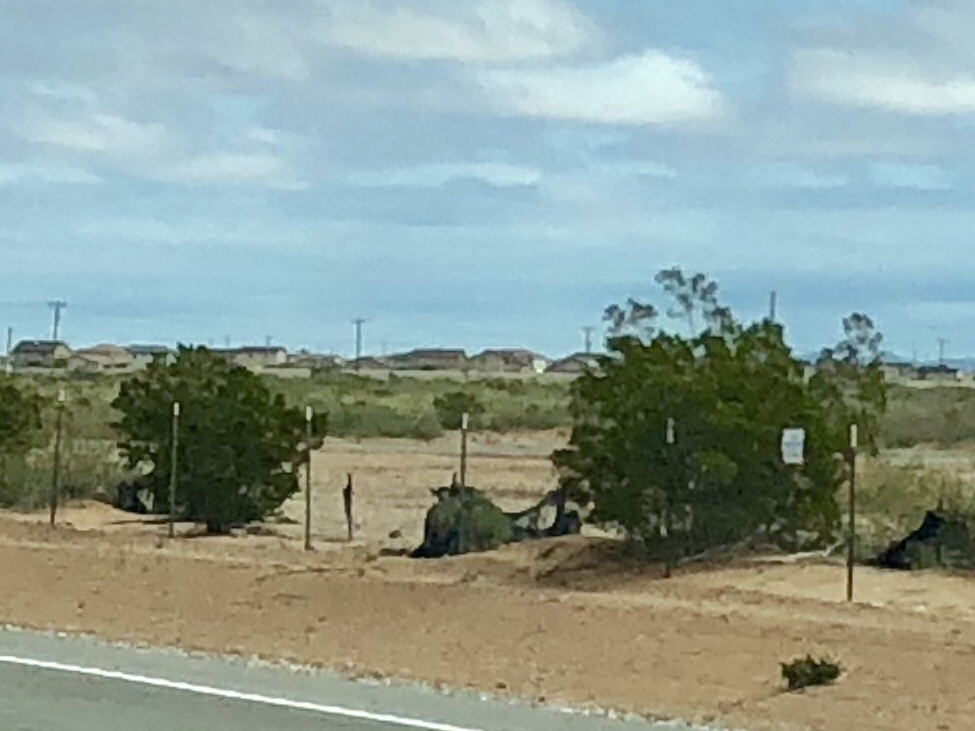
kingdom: Plantae
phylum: Tracheophyta
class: Magnoliopsida
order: Zygophyllales
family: Zygophyllaceae
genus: Larrea
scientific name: Larrea tridentata
